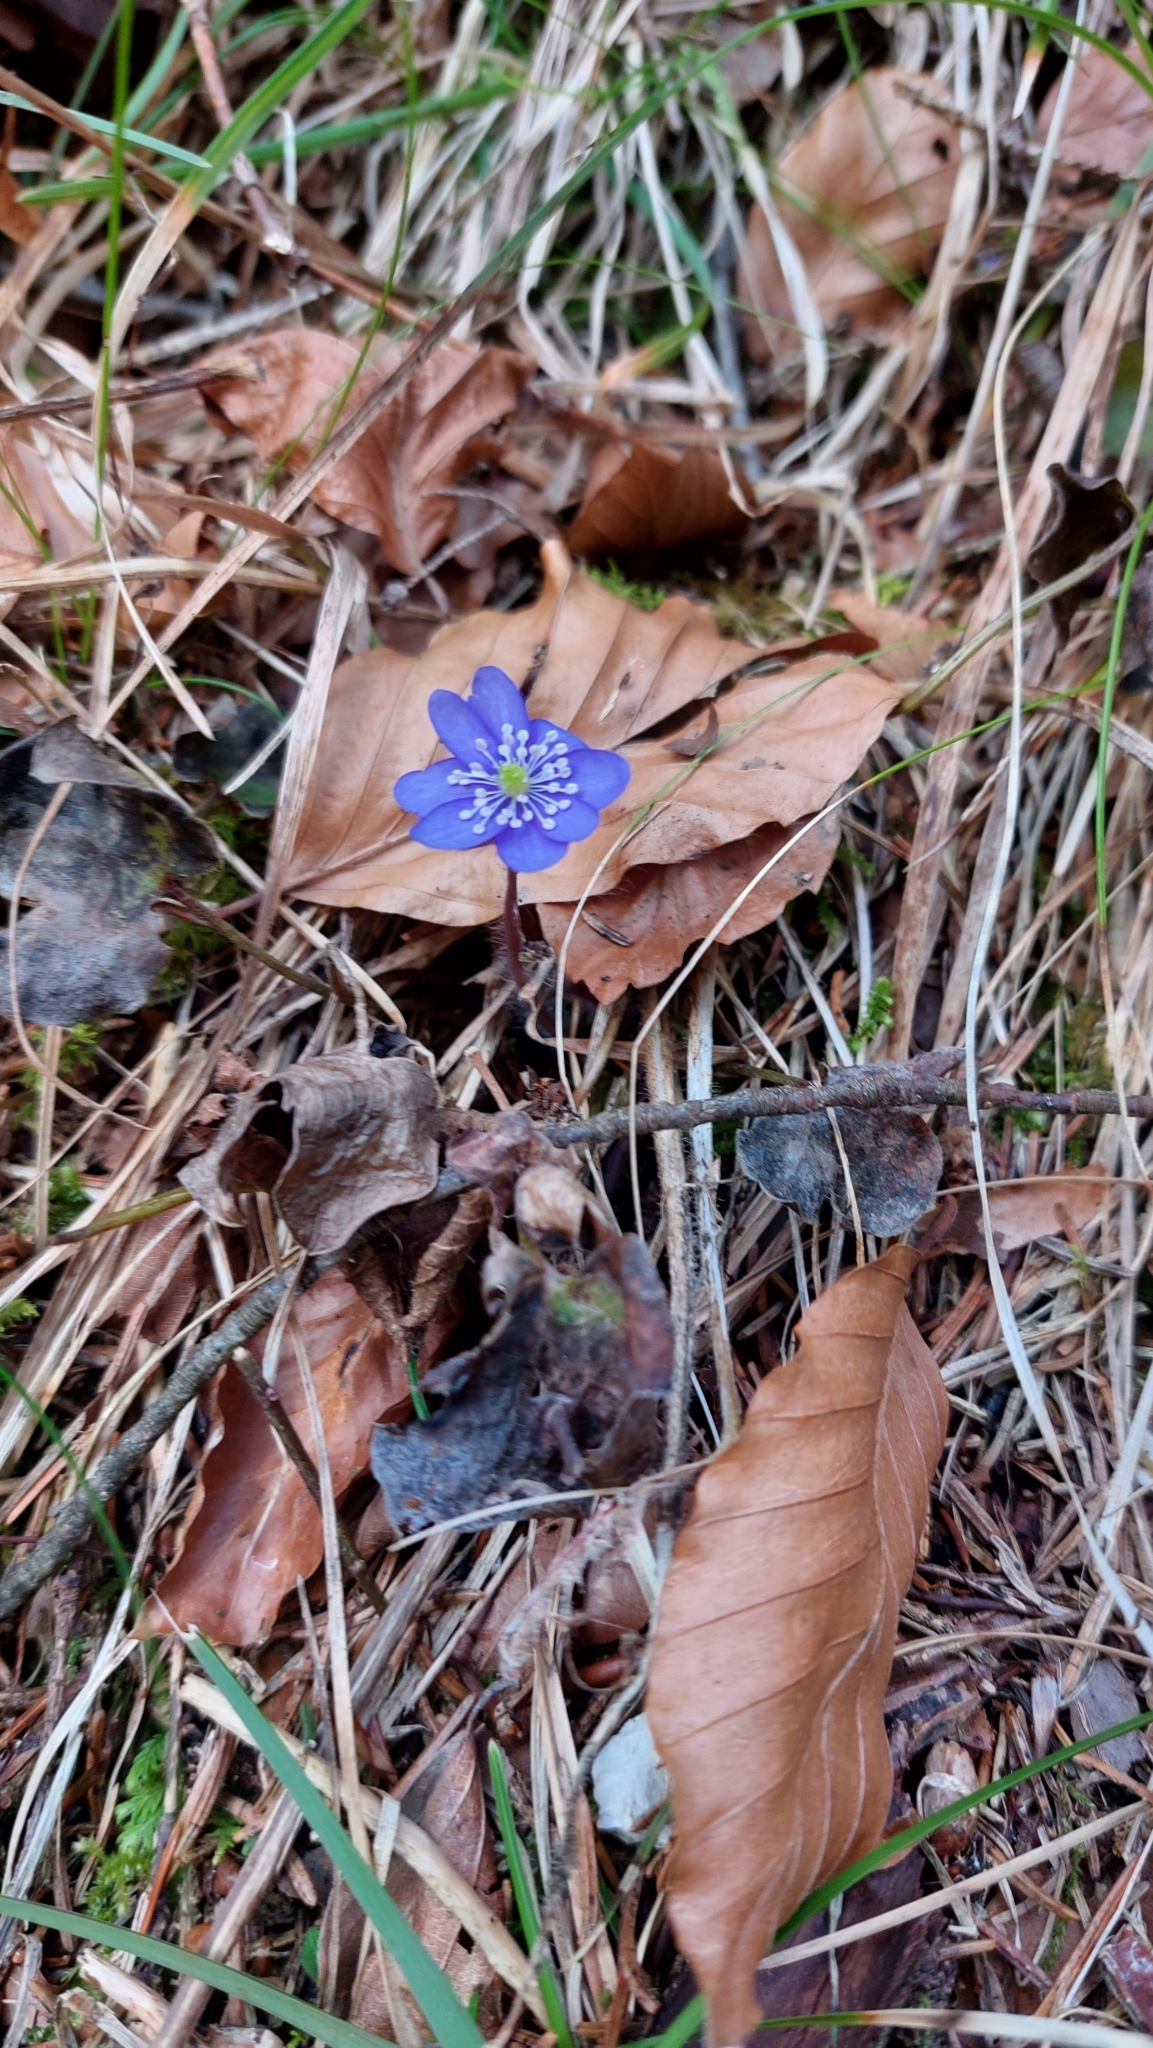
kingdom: Plantae
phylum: Tracheophyta
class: Magnoliopsida
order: Ranunculales
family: Ranunculaceae
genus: Hepatica
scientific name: Hepatica nobilis
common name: Liverleaf
